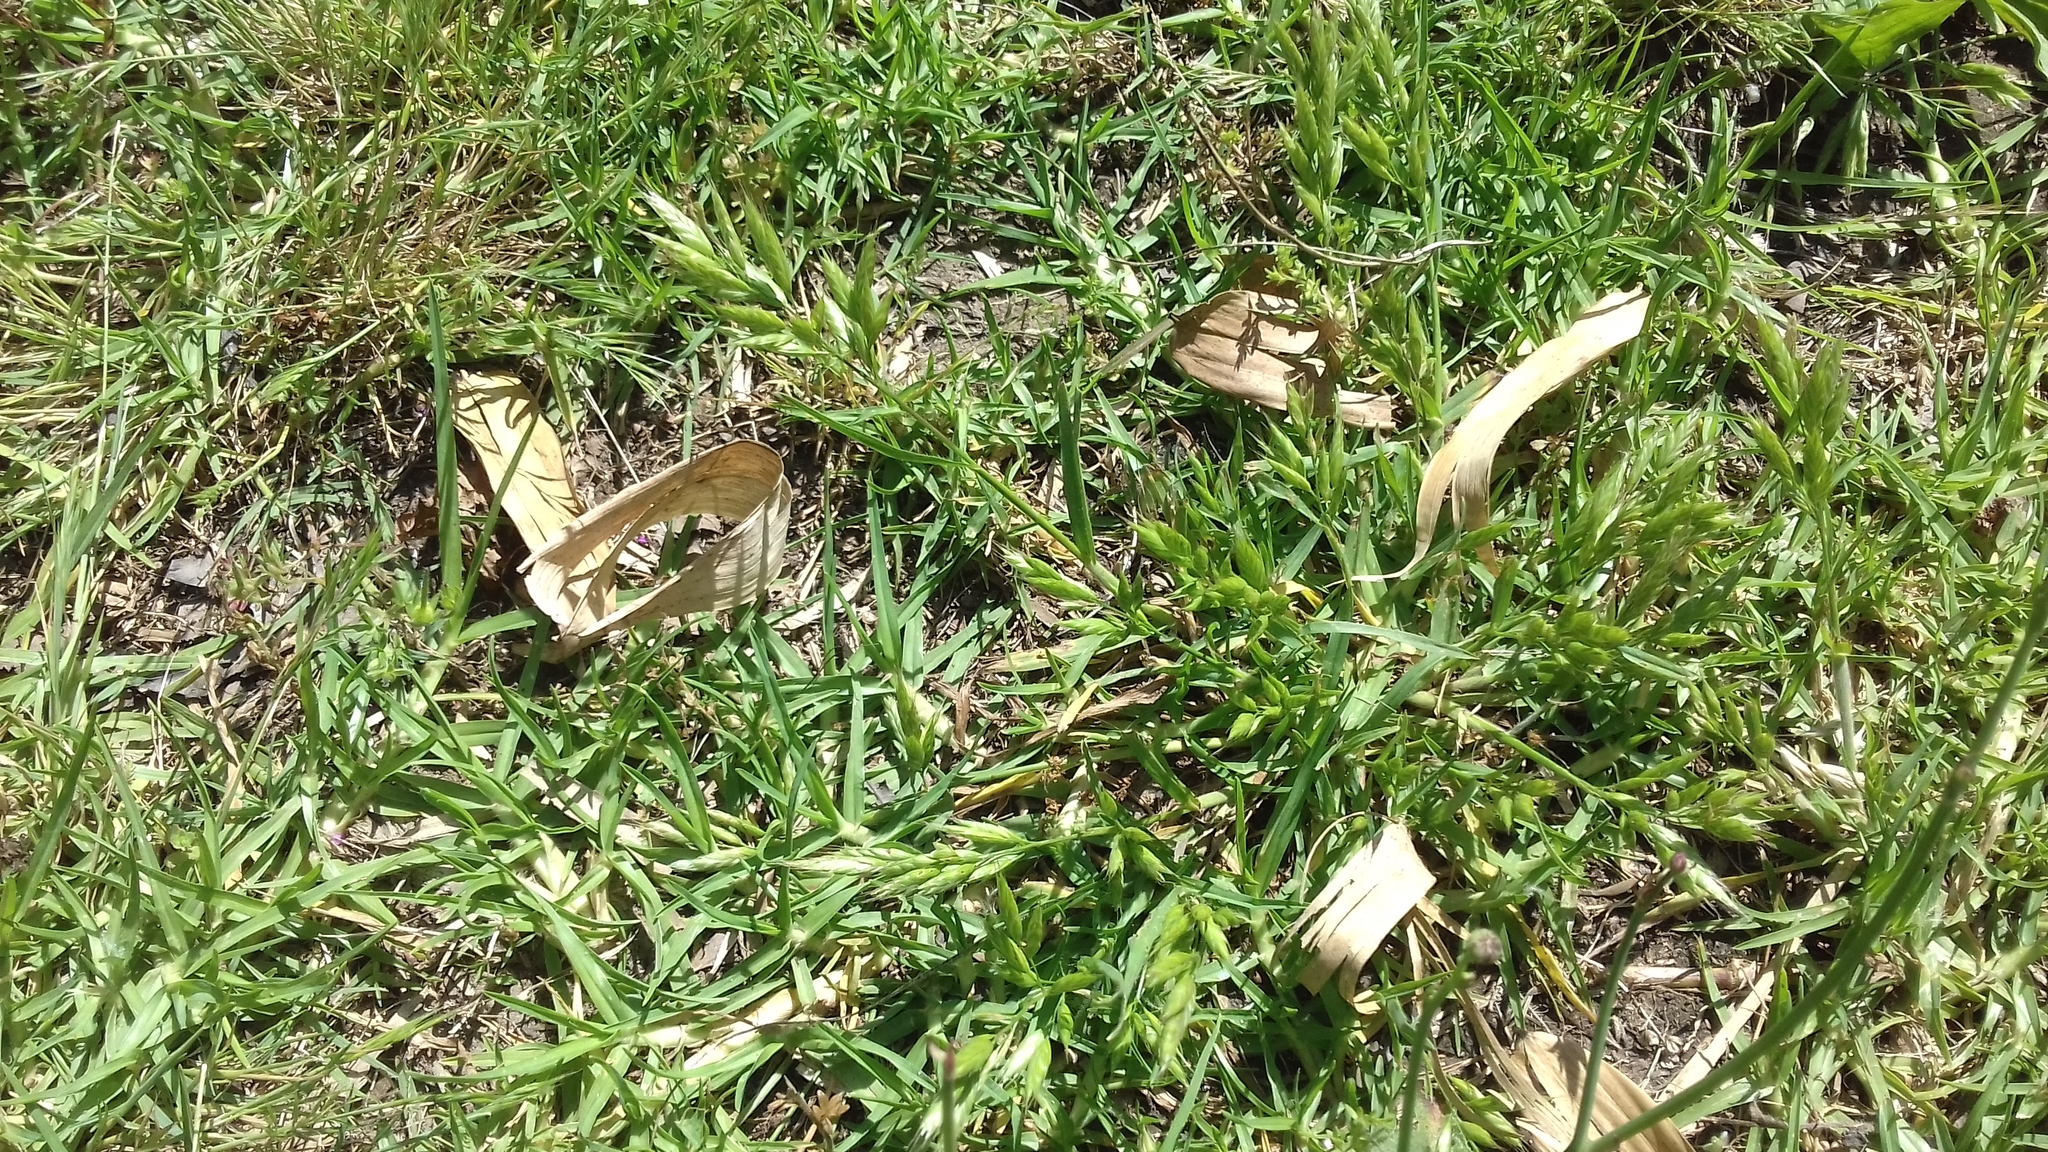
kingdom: Plantae
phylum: Tracheophyta
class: Liliopsida
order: Poales
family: Poaceae
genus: Bromus
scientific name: Bromus hordeaceus
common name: Soft brome
